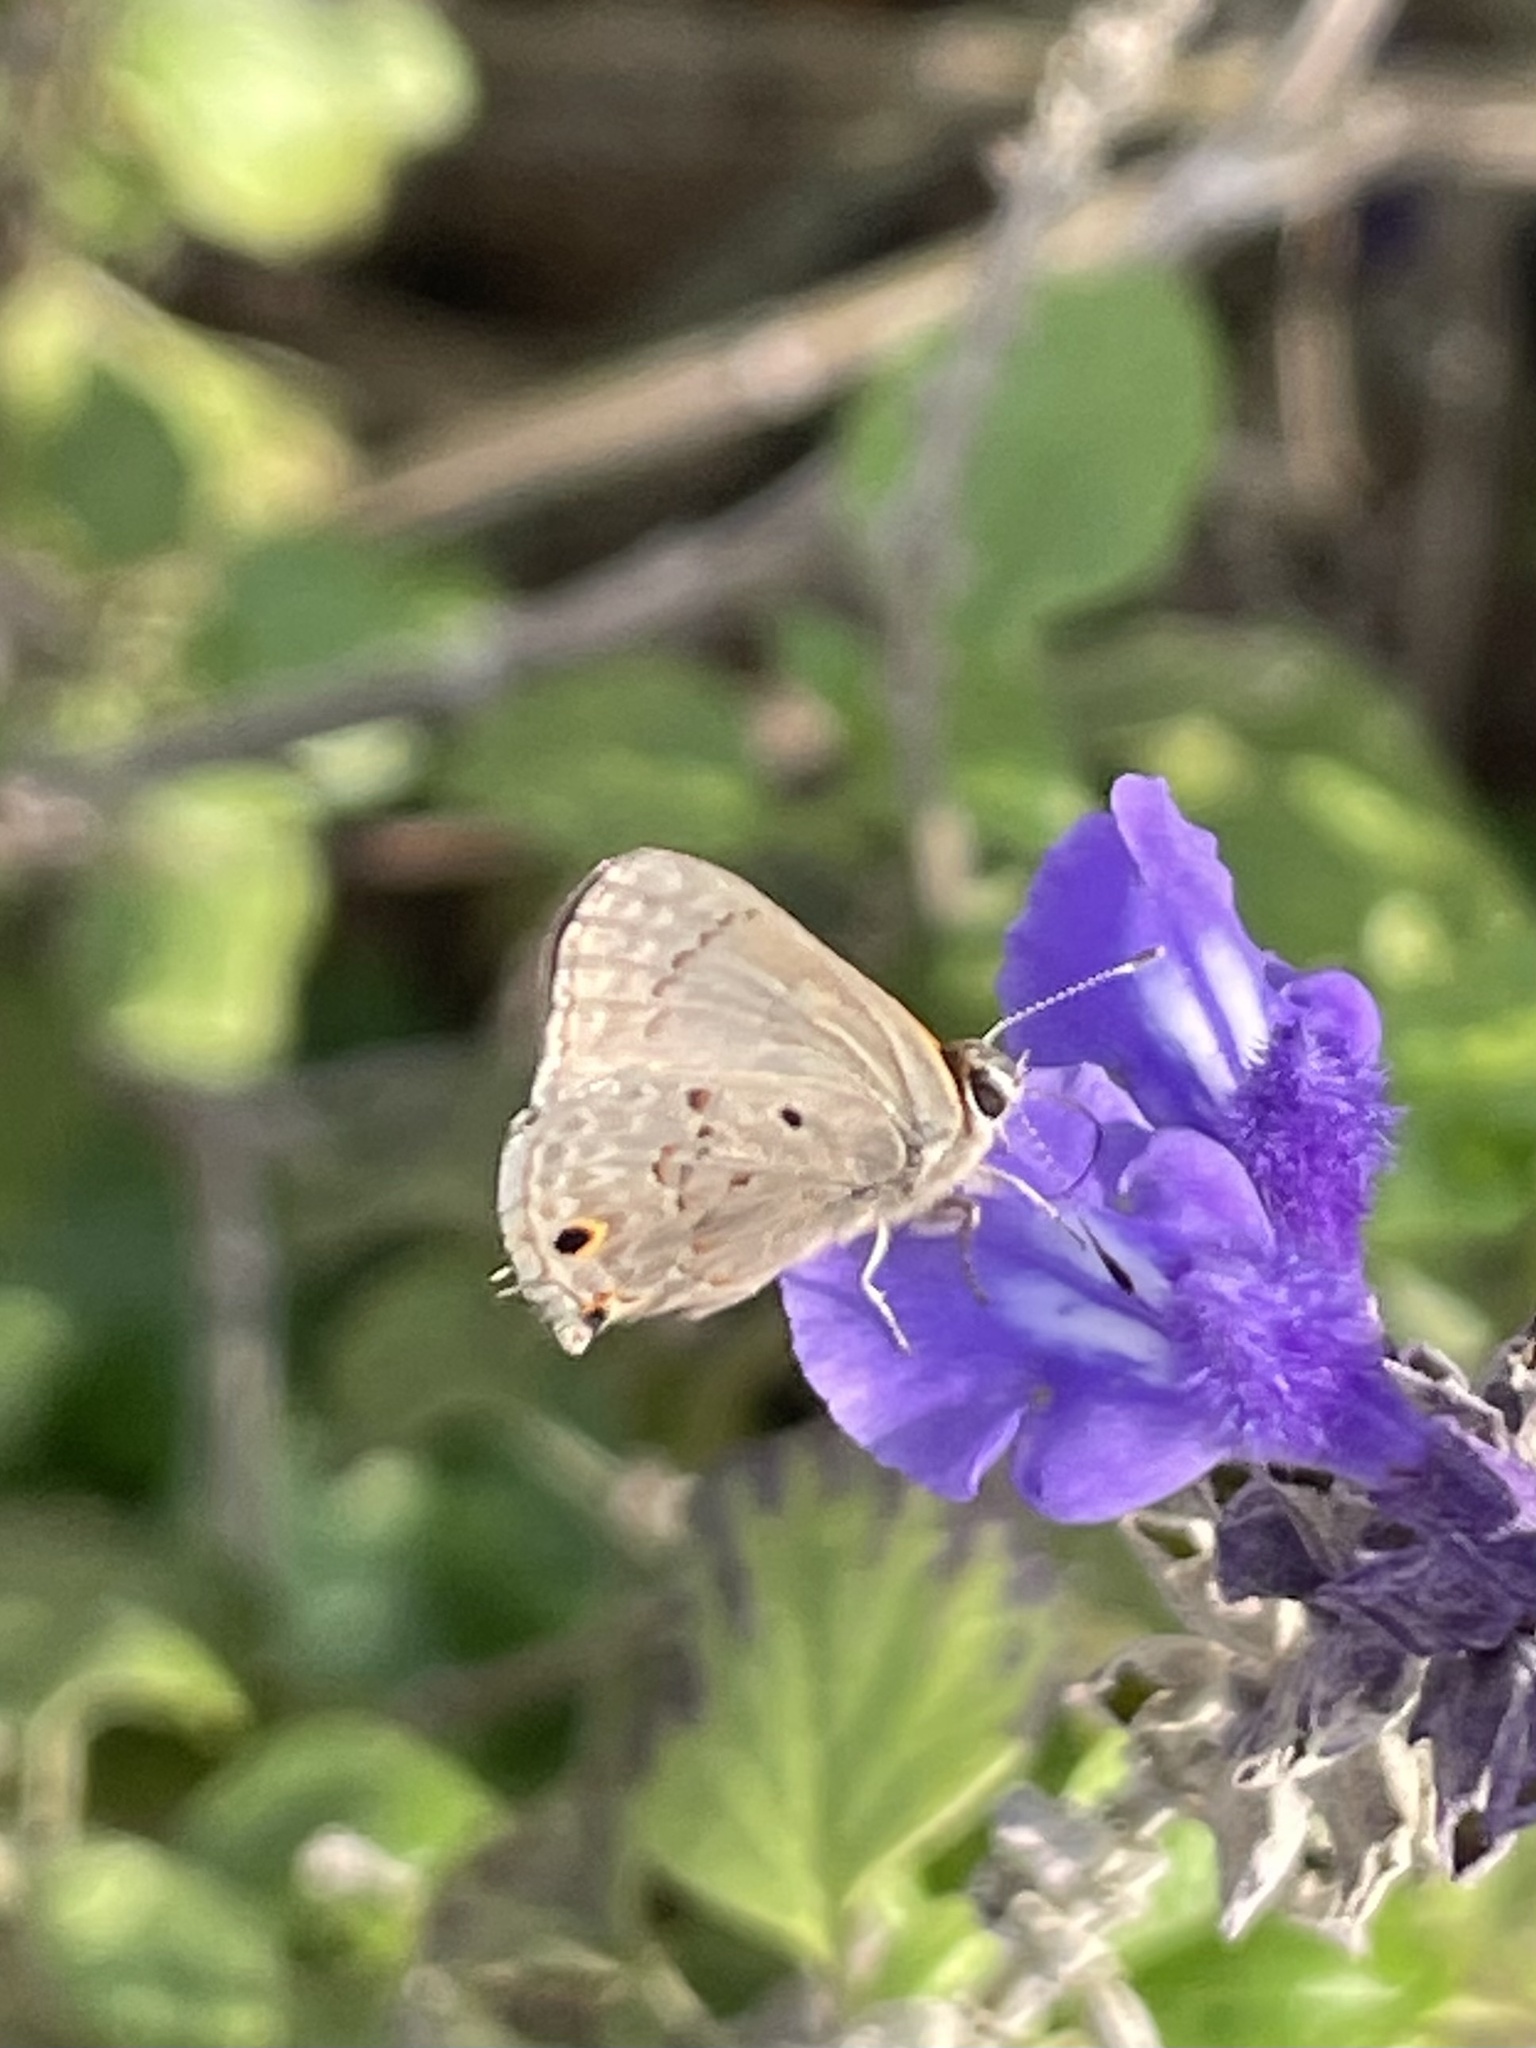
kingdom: Animalia
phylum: Arthropoda
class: Insecta
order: Lepidoptera
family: Lycaenidae
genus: Callicista
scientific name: Callicista columella
